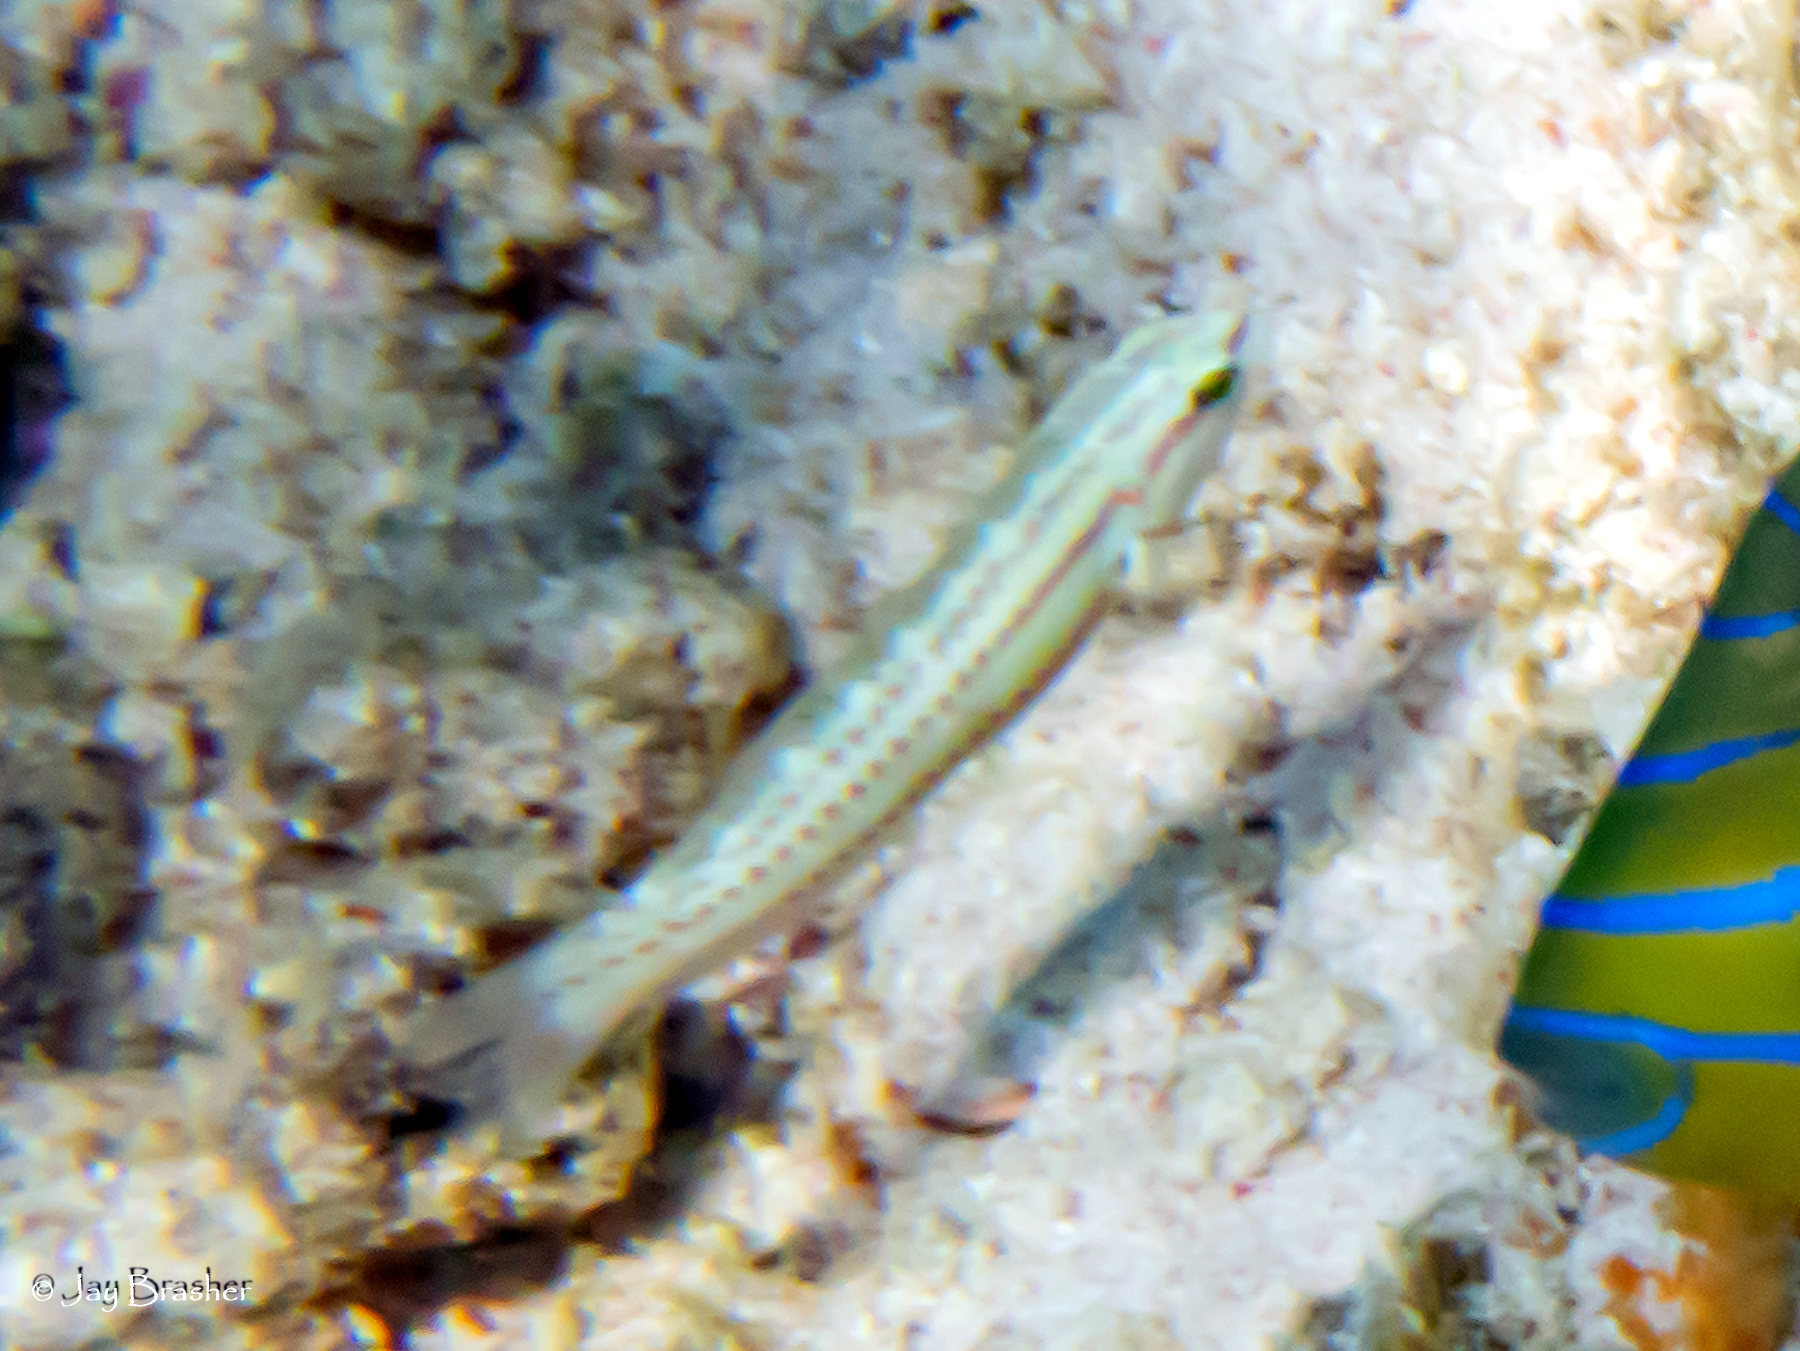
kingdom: Animalia
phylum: Chordata
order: Perciformes
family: Labridae
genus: Halichoeres
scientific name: Halichoeres bivittatus
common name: Slippery dick
